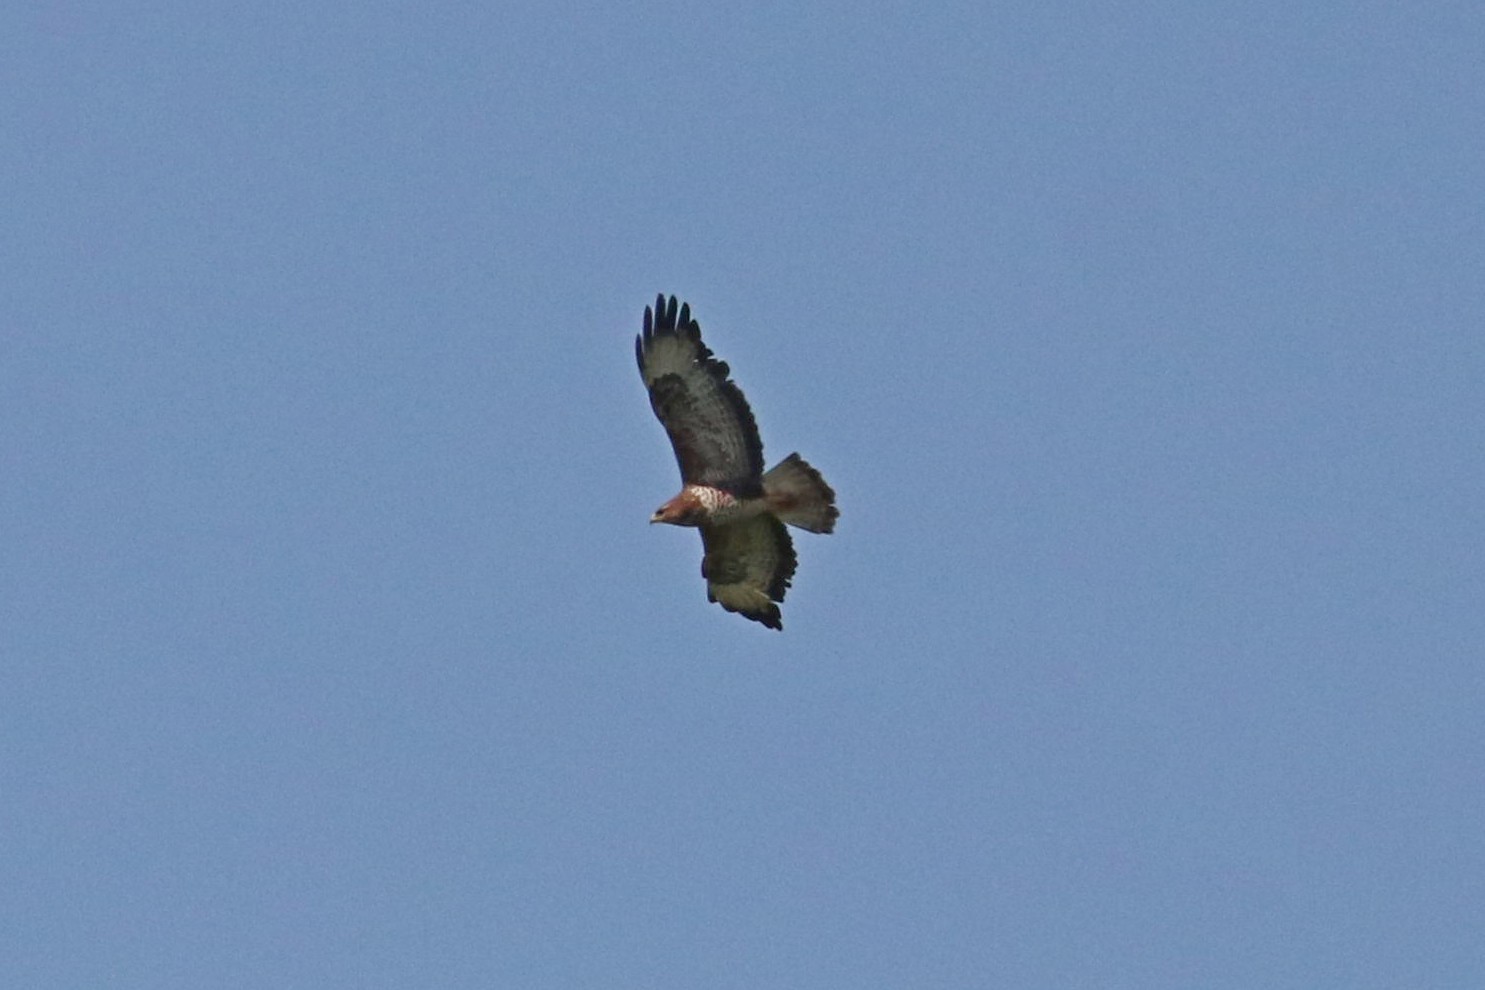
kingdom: Animalia
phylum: Chordata
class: Aves
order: Accipitriformes
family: Accipitridae
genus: Buteo
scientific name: Buteo buteo
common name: Common buzzard
